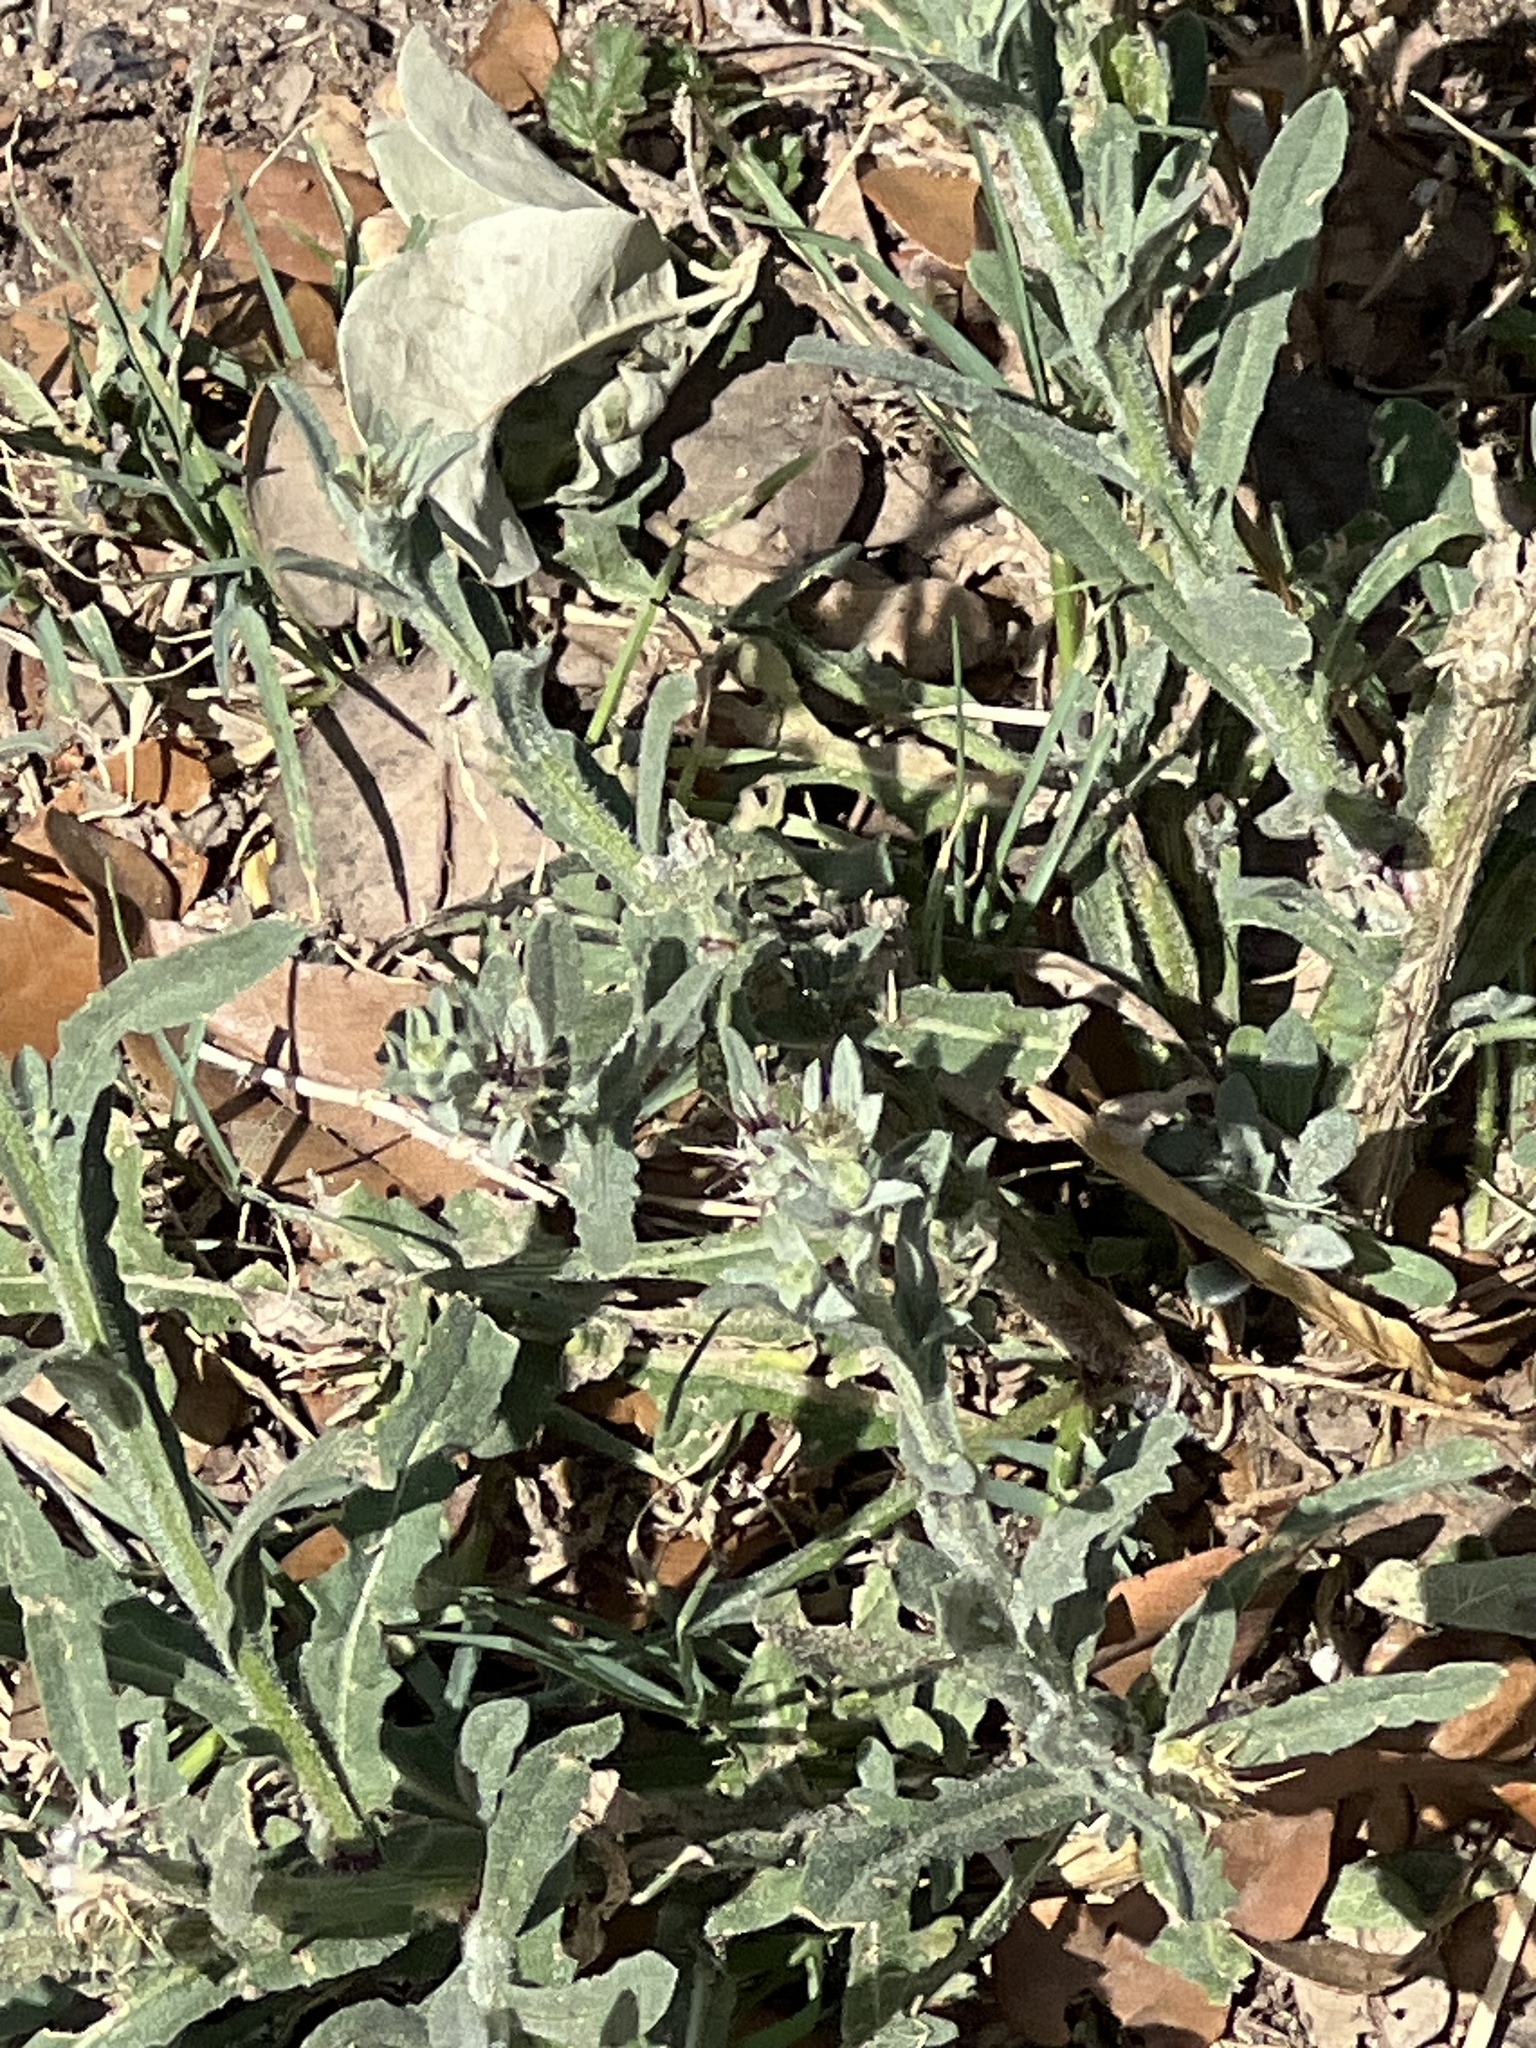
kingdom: Plantae
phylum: Tracheophyta
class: Magnoliopsida
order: Asterales
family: Asteraceae
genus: Centaurea
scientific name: Centaurea melitensis
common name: Maltese star-thistle
